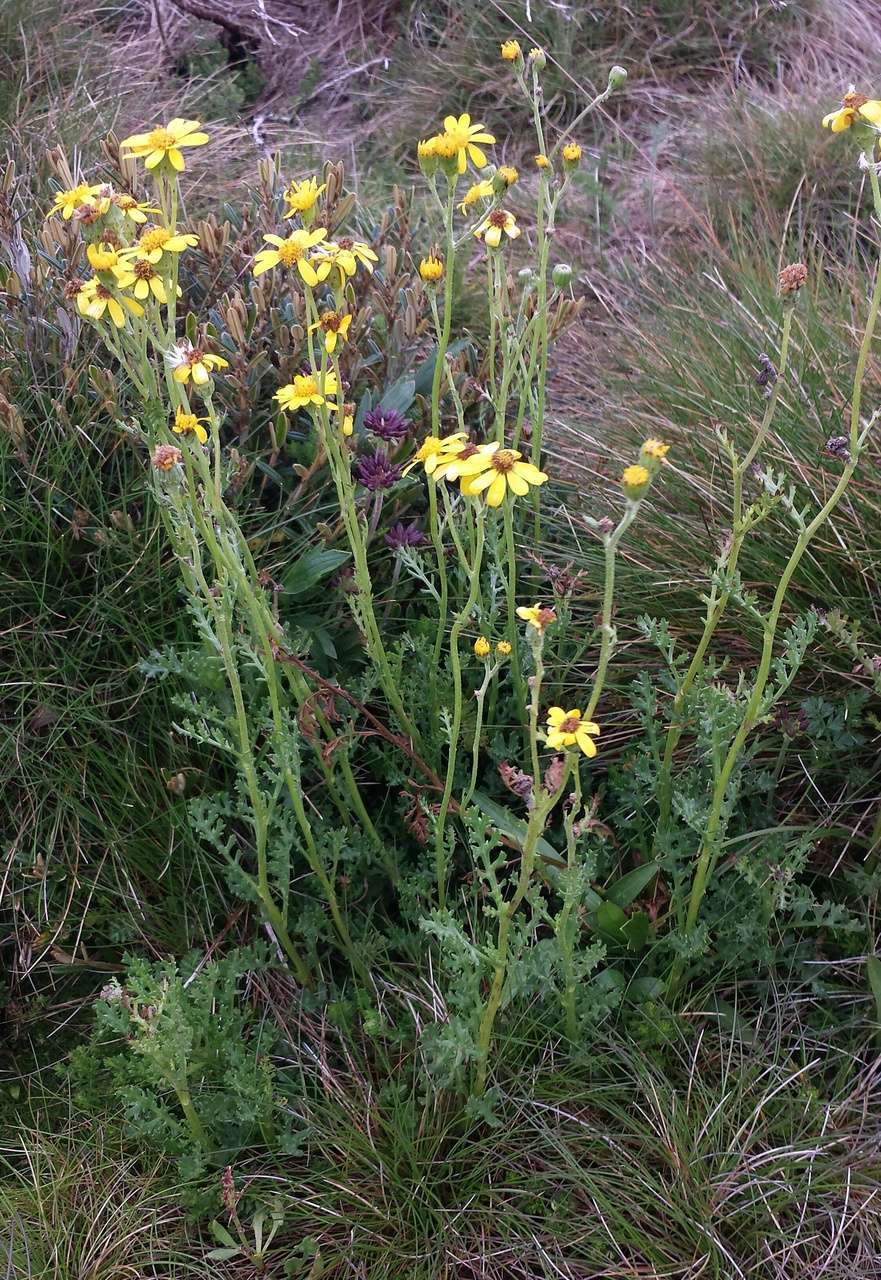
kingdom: Plantae
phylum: Tracheophyta
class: Magnoliopsida
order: Asterales
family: Asteraceae
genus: Senecio
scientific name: Senecio pinnatifolius
